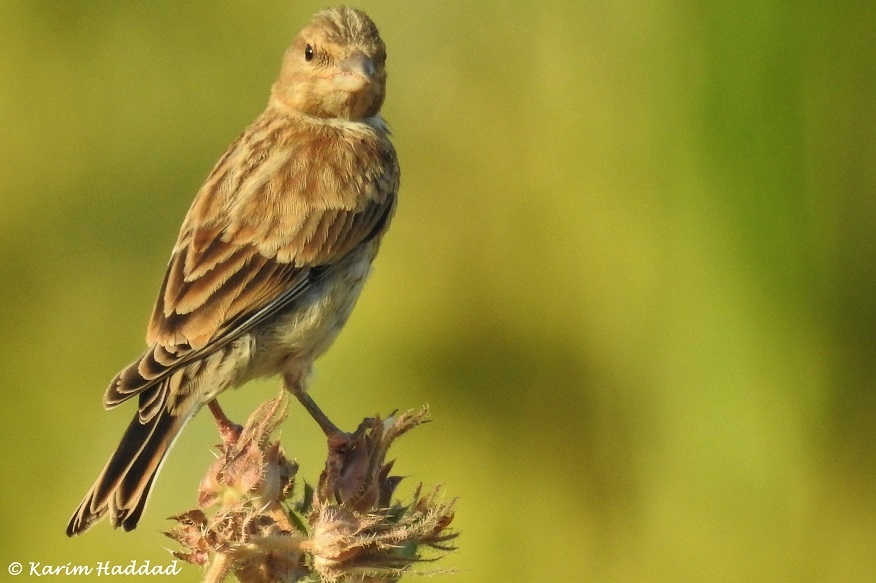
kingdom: Animalia
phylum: Chordata
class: Aves
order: Passeriformes
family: Fringillidae
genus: Linaria
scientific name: Linaria cannabina
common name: Common linnet
